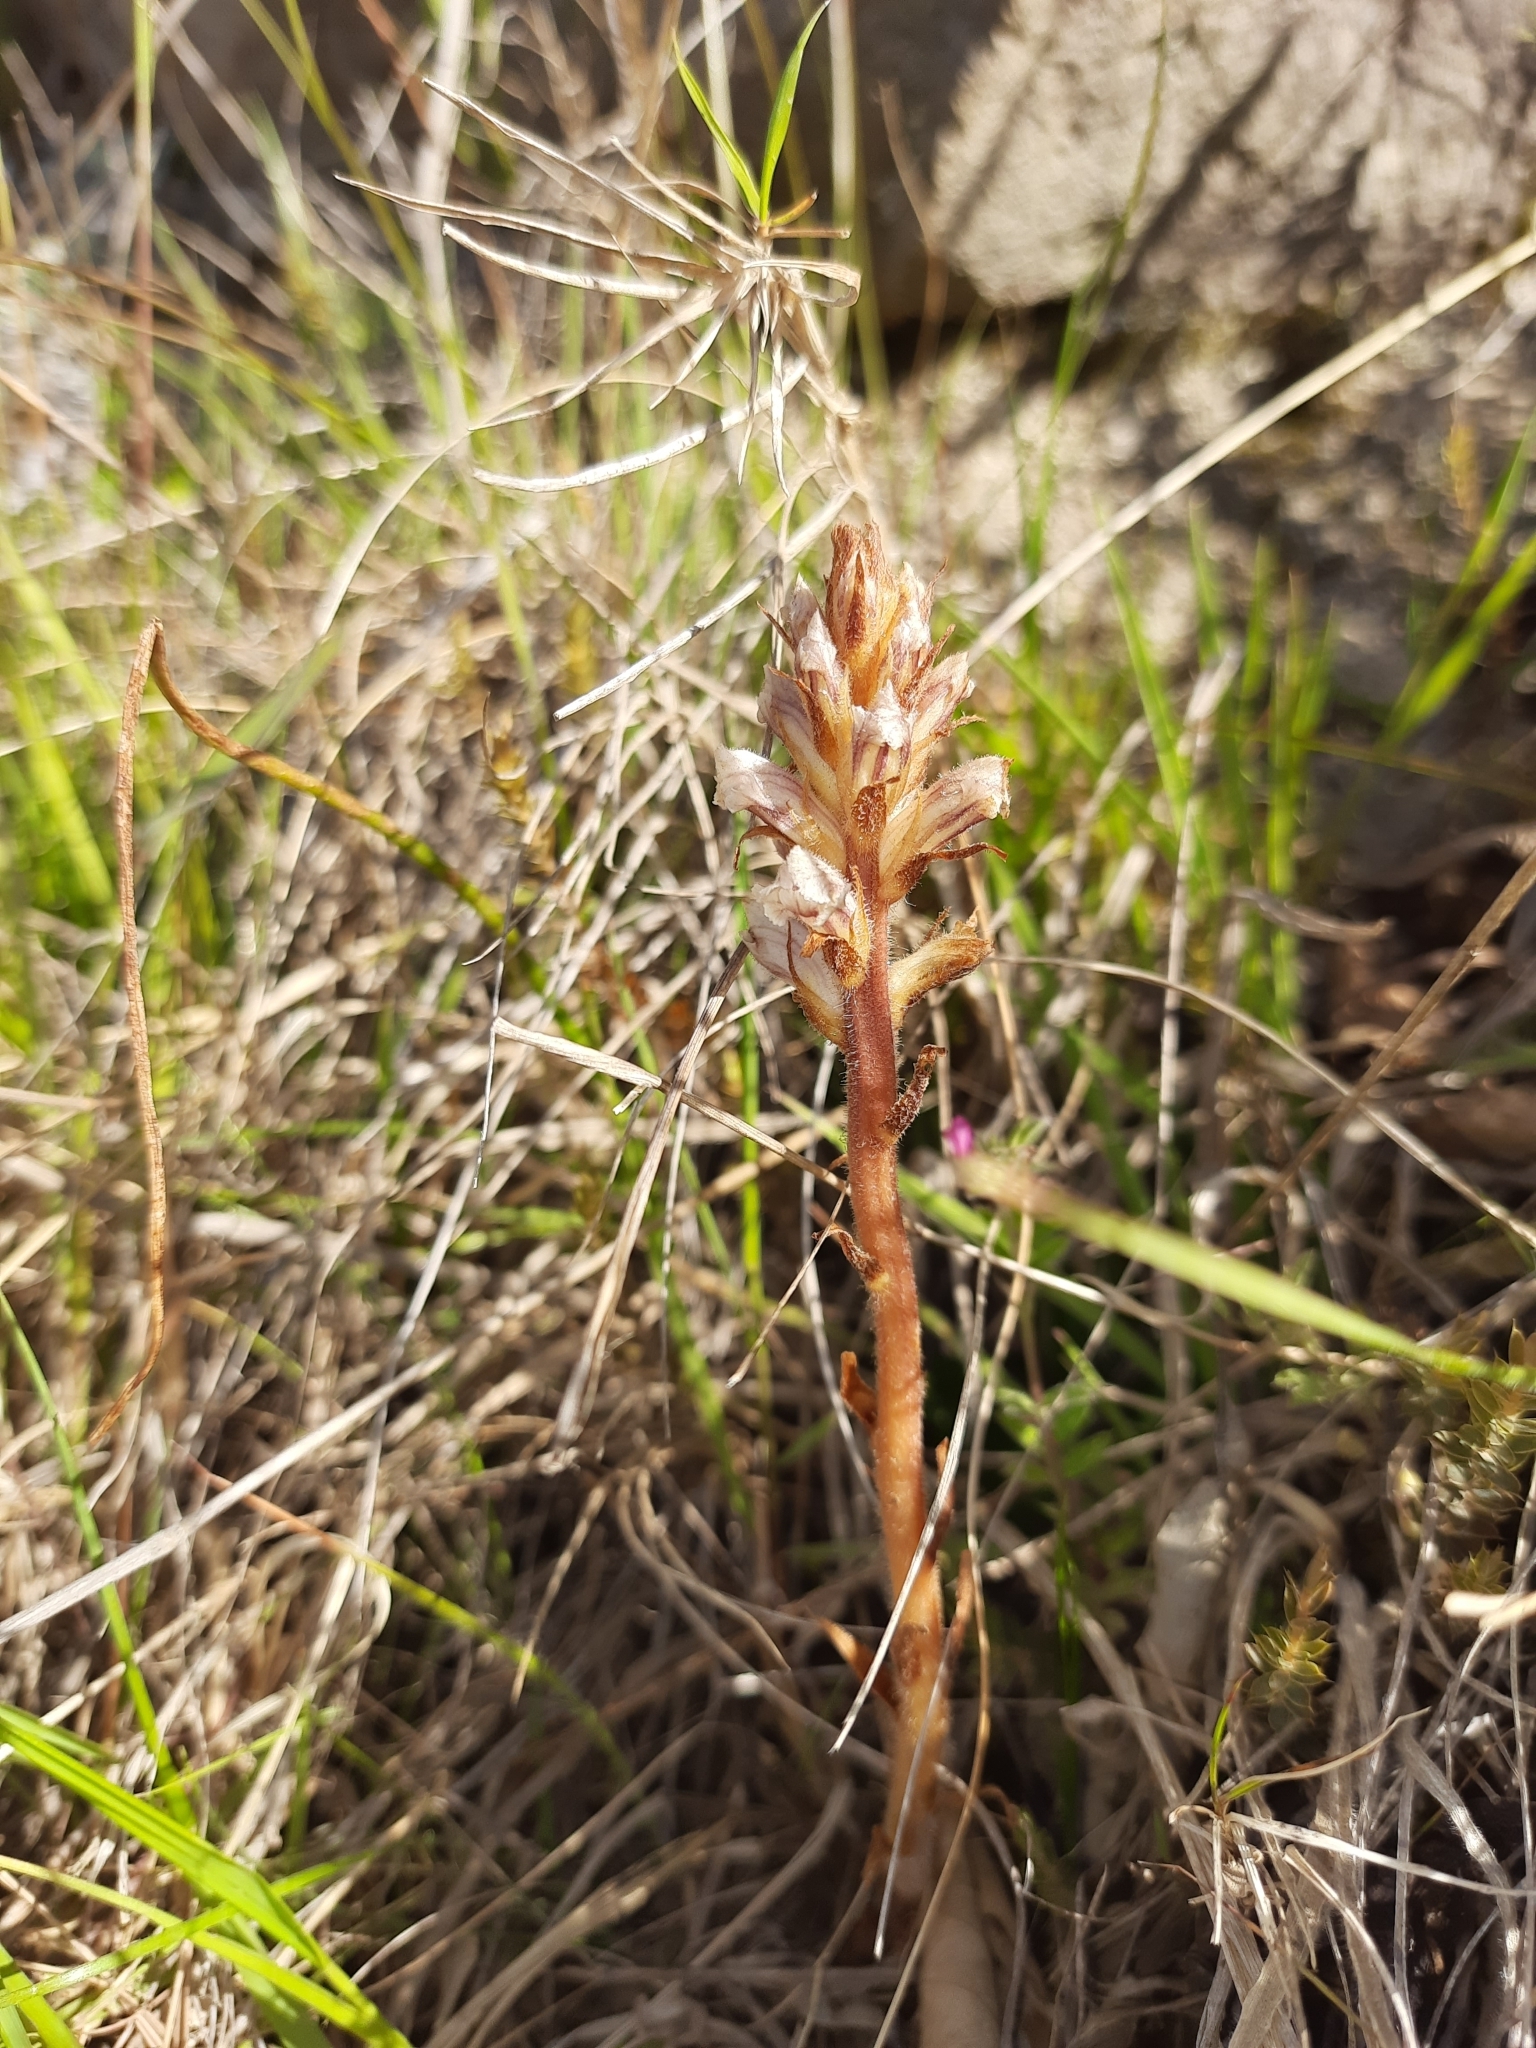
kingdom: Plantae
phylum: Tracheophyta
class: Magnoliopsida
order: Lamiales
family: Orobanchaceae
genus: Orobanche
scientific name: Orobanche minor
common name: Common broomrape
